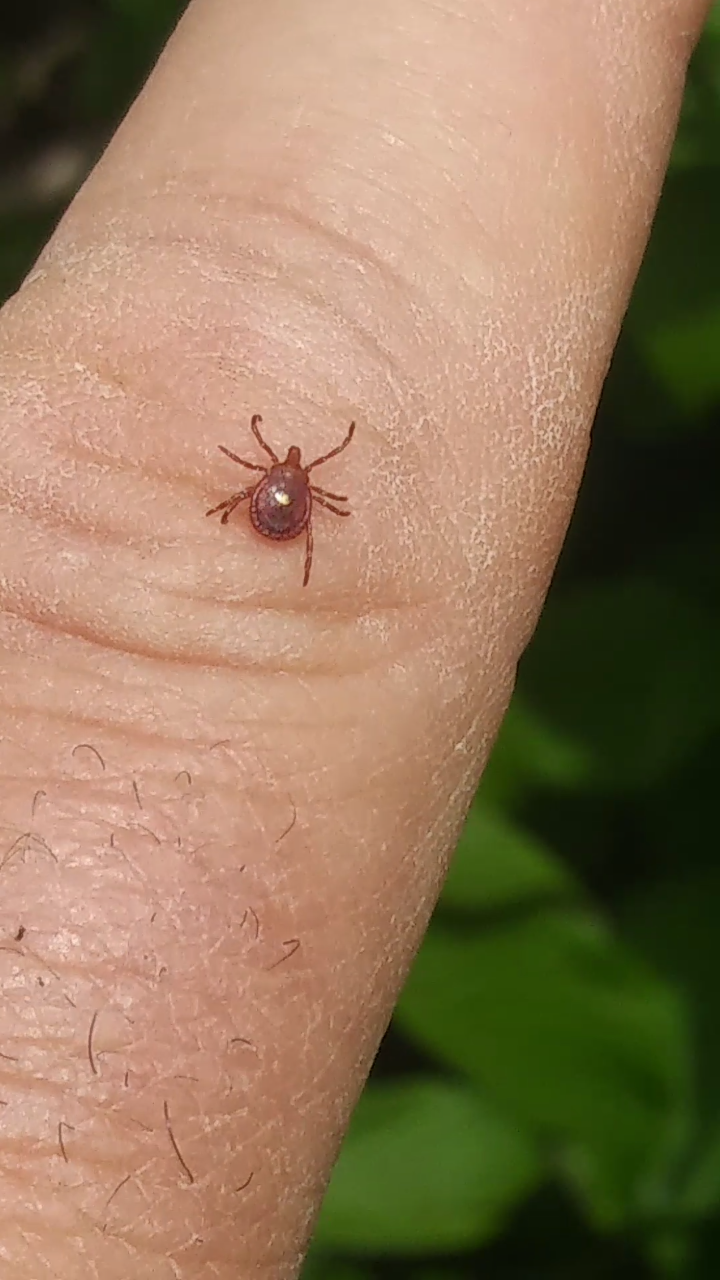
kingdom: Animalia
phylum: Arthropoda
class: Arachnida
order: Ixodida
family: Ixodidae
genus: Amblyomma
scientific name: Amblyomma americanum
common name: Lone star tick
